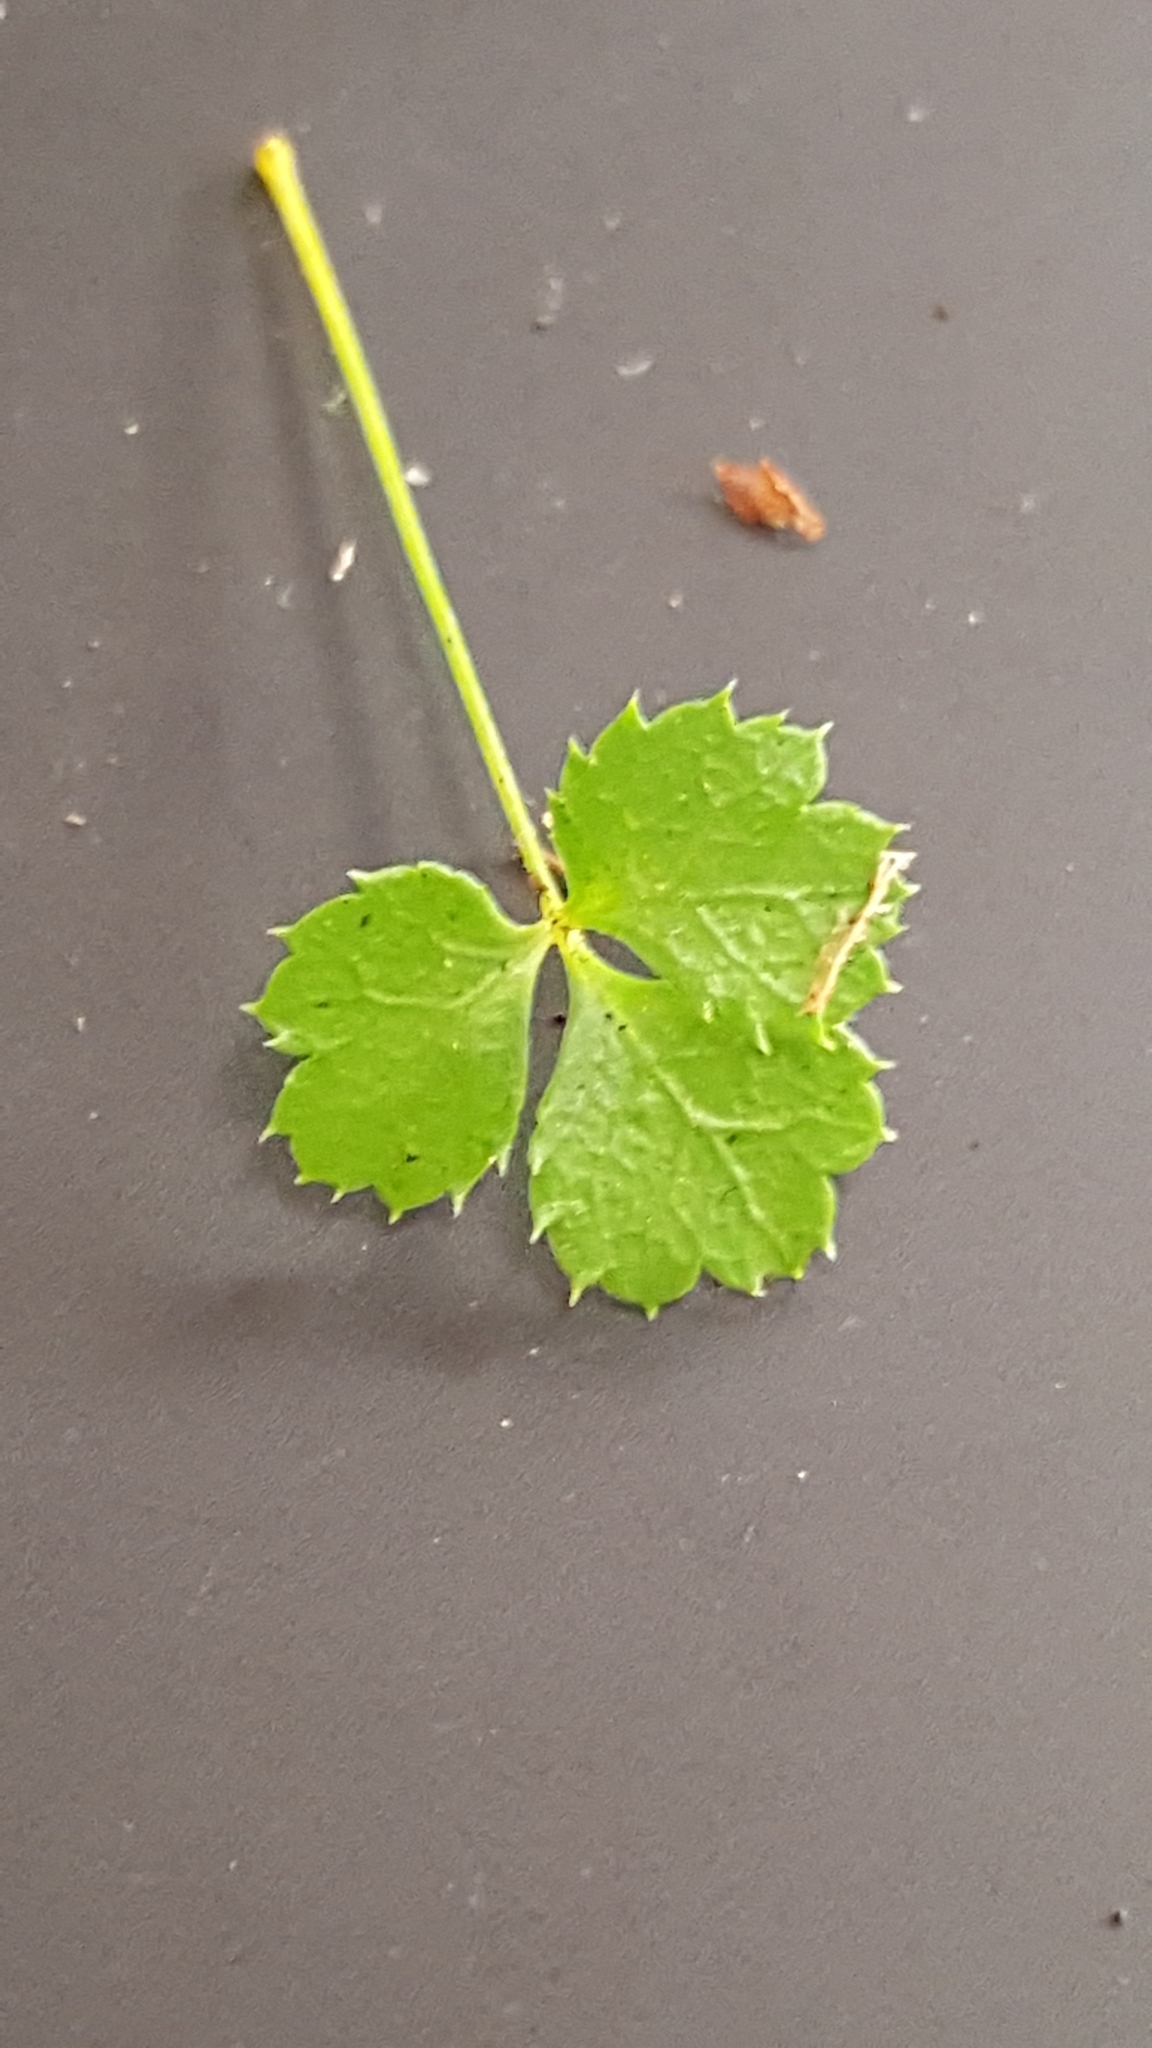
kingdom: Plantae
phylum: Tracheophyta
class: Magnoliopsida
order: Ranunculales
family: Ranunculaceae
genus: Coptis
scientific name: Coptis trifolia
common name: Canker-root
